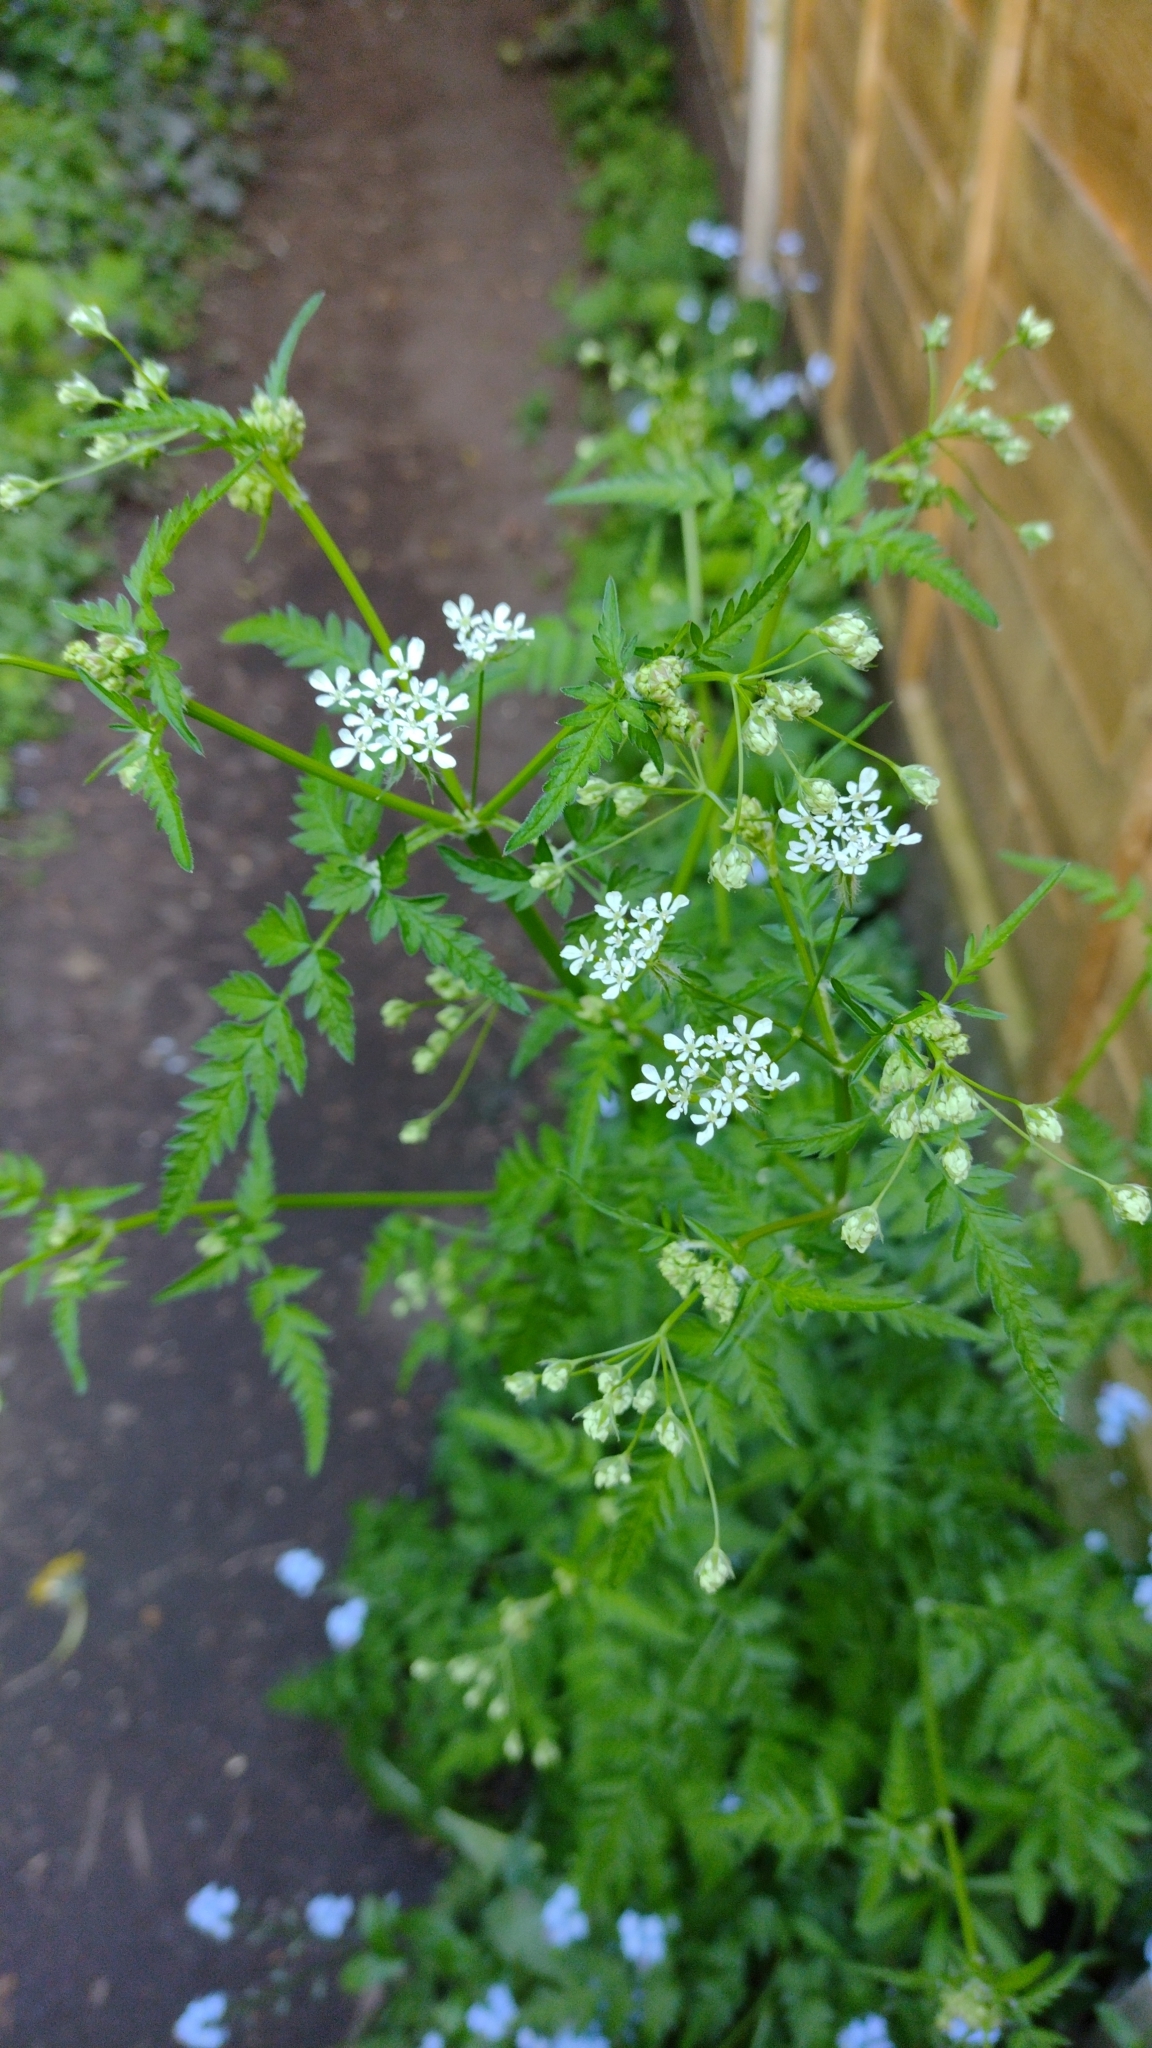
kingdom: Plantae
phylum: Tracheophyta
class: Magnoliopsida
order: Apiales
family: Apiaceae
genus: Anthriscus
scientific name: Anthriscus sylvestris
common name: Cow parsley
